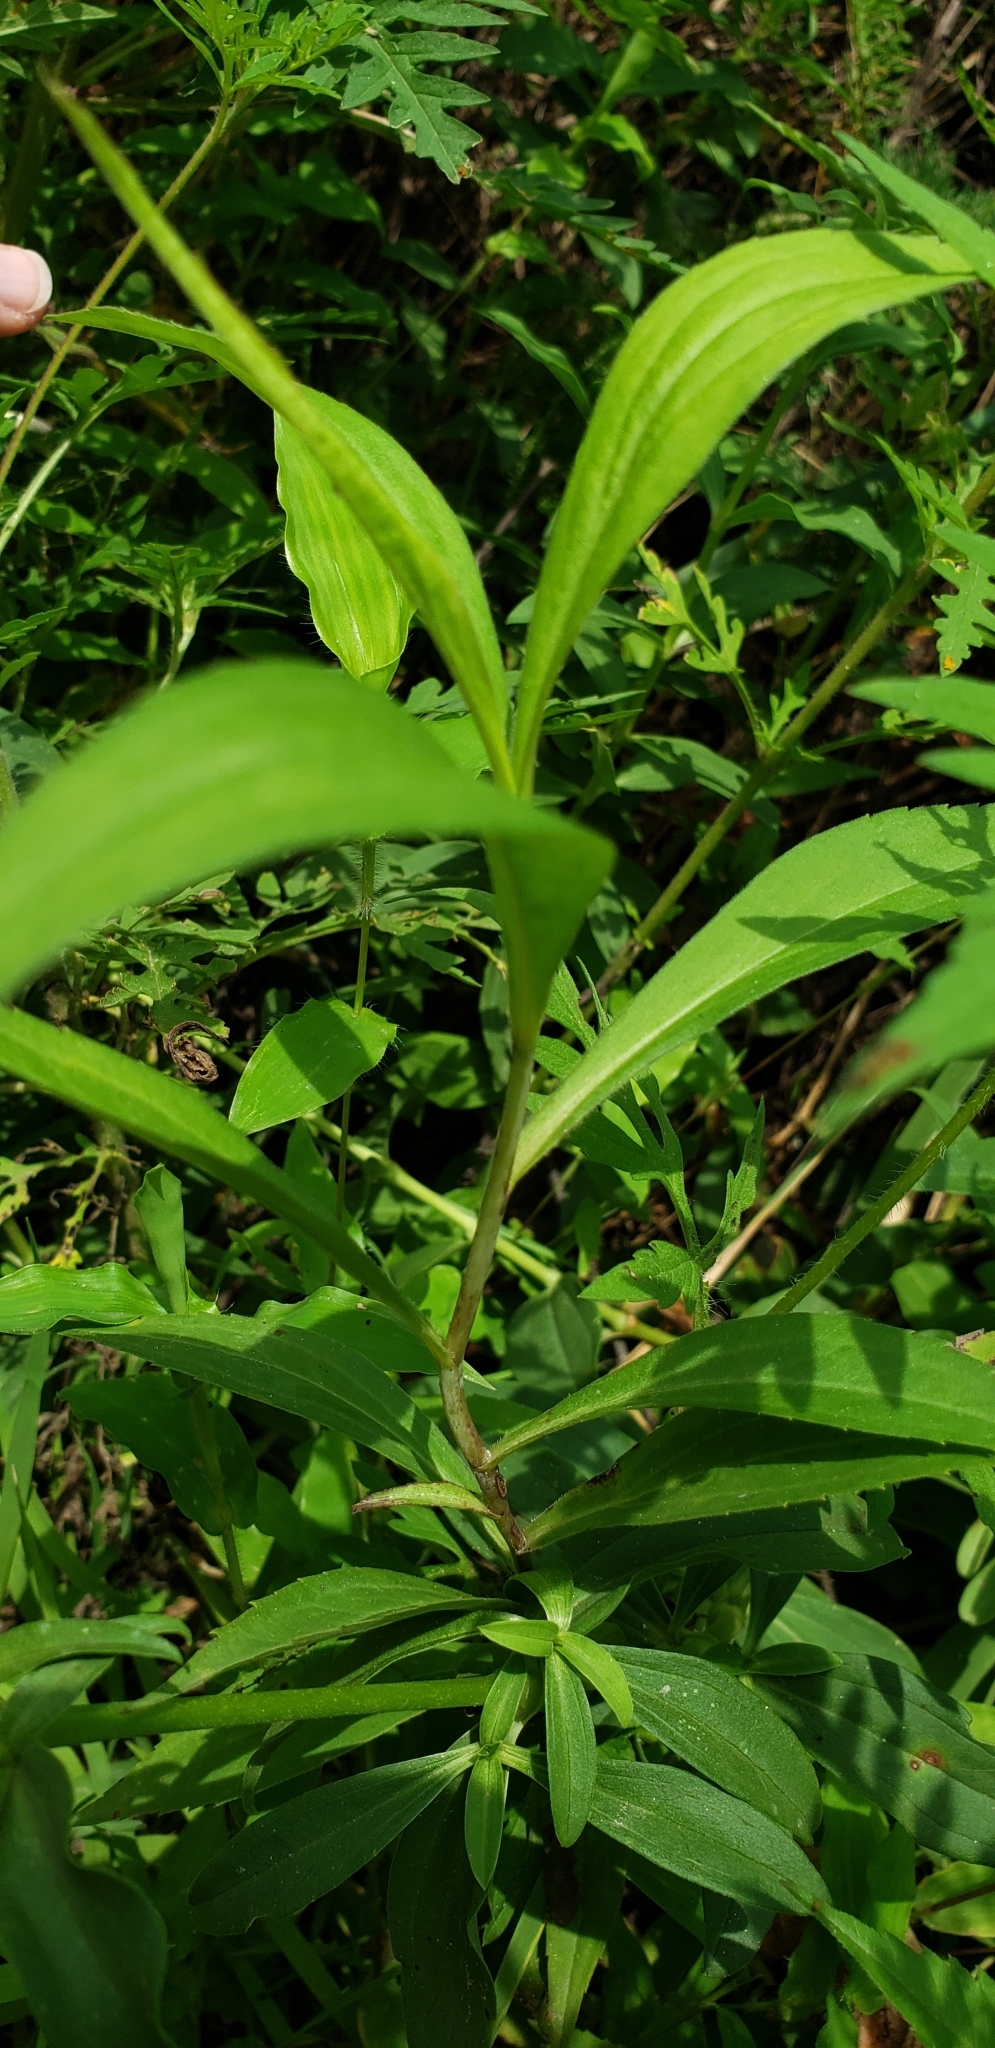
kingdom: Plantae
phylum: Tracheophyta
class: Magnoliopsida
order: Caryophyllales
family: Caryophyllaceae
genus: Saponaria
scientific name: Saponaria officinalis
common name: Soapwort
